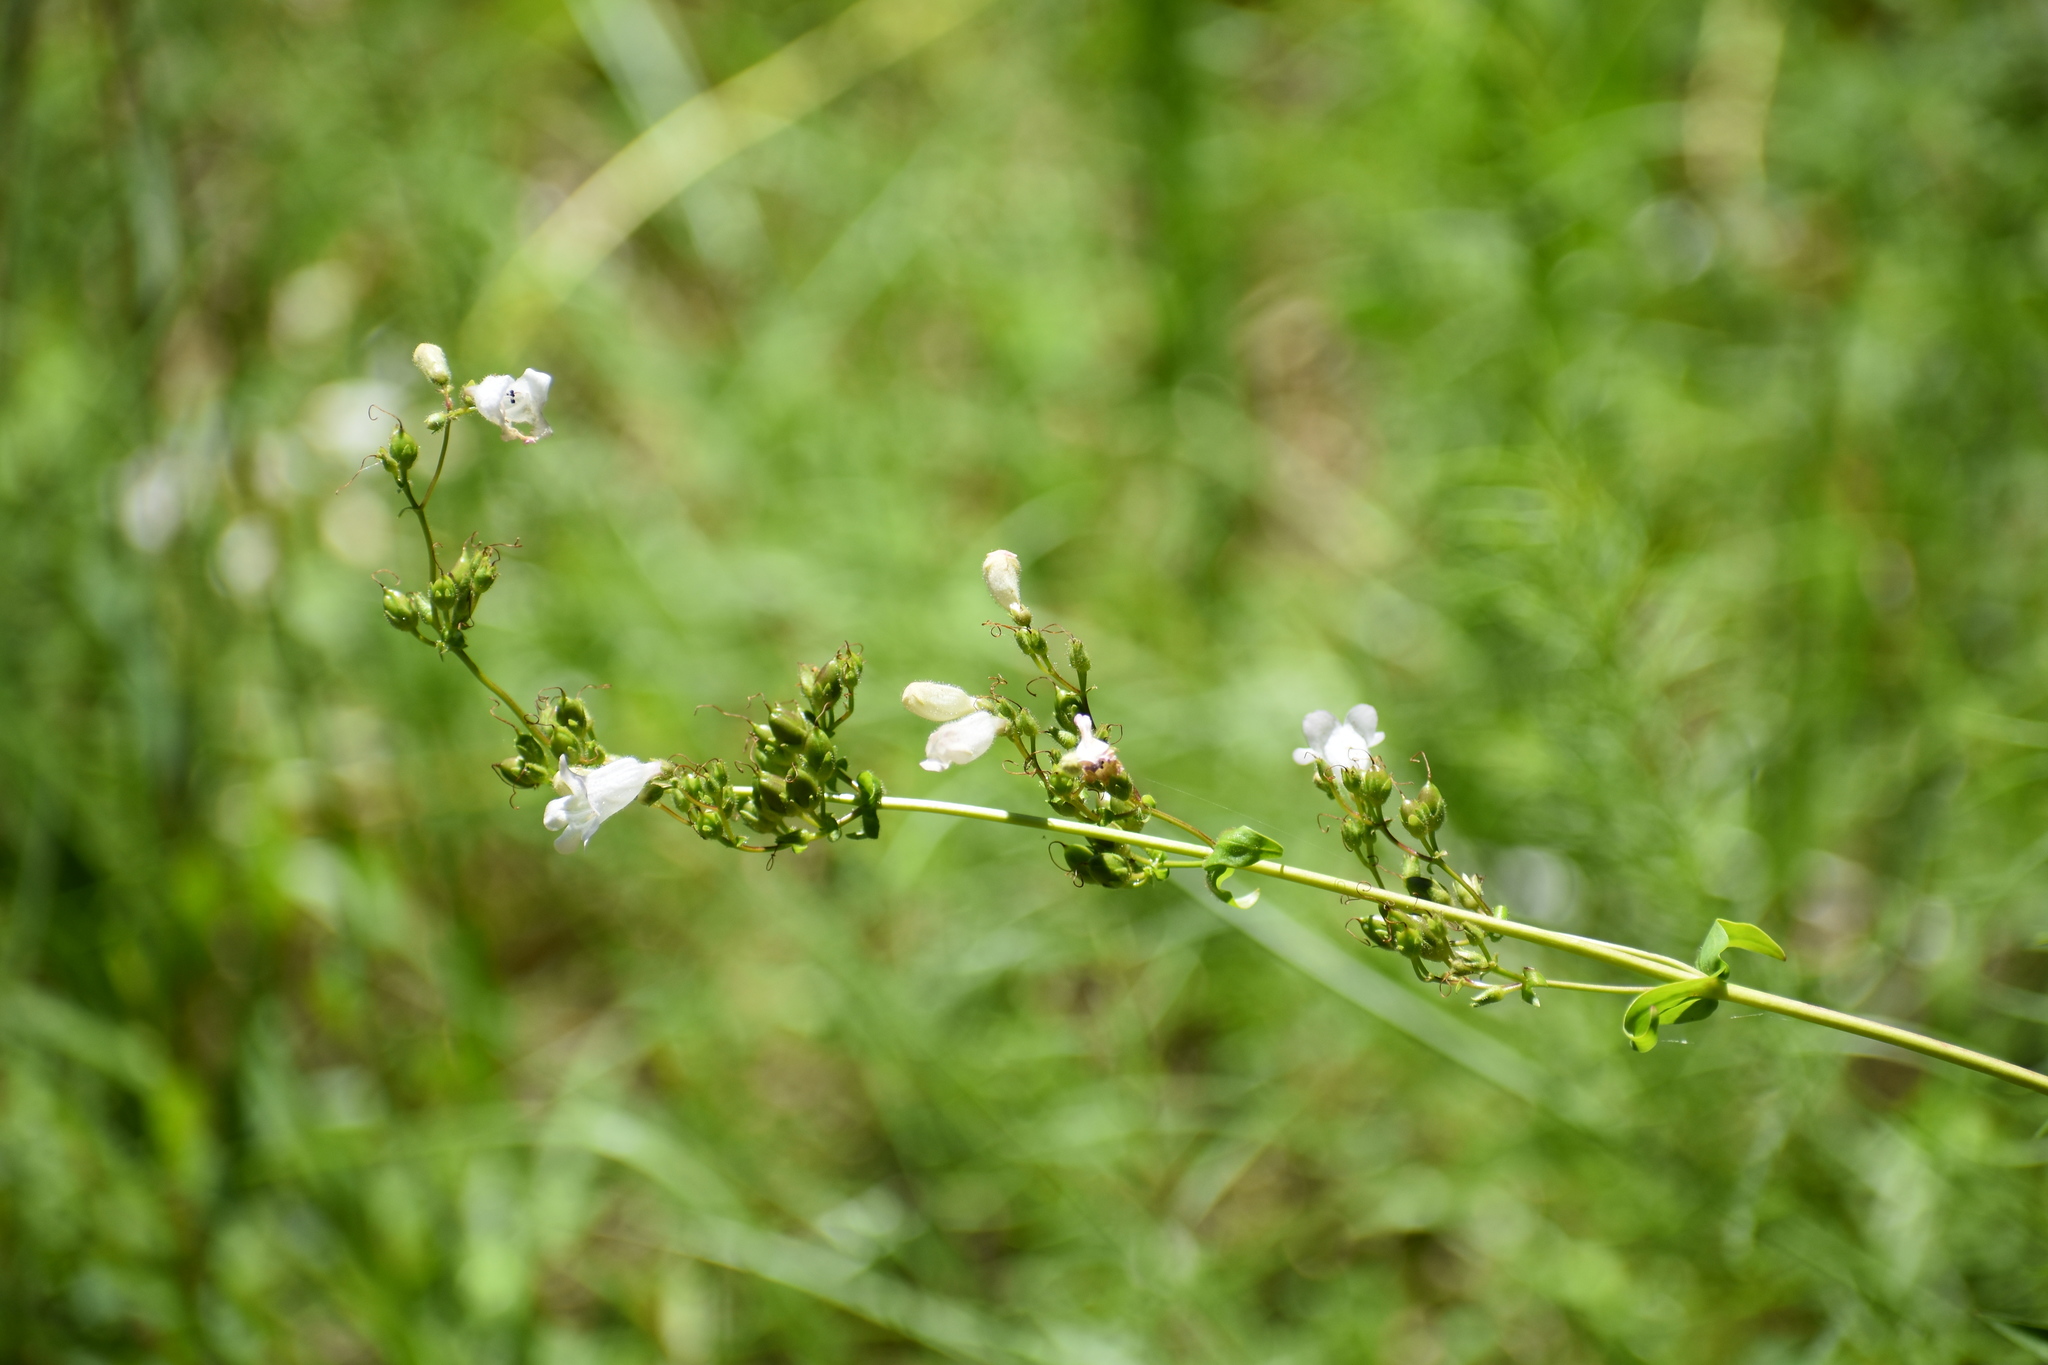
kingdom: Plantae
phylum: Tracheophyta
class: Magnoliopsida
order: Lamiales
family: Plantaginaceae
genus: Penstemon
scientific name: Penstemon multiflorus
